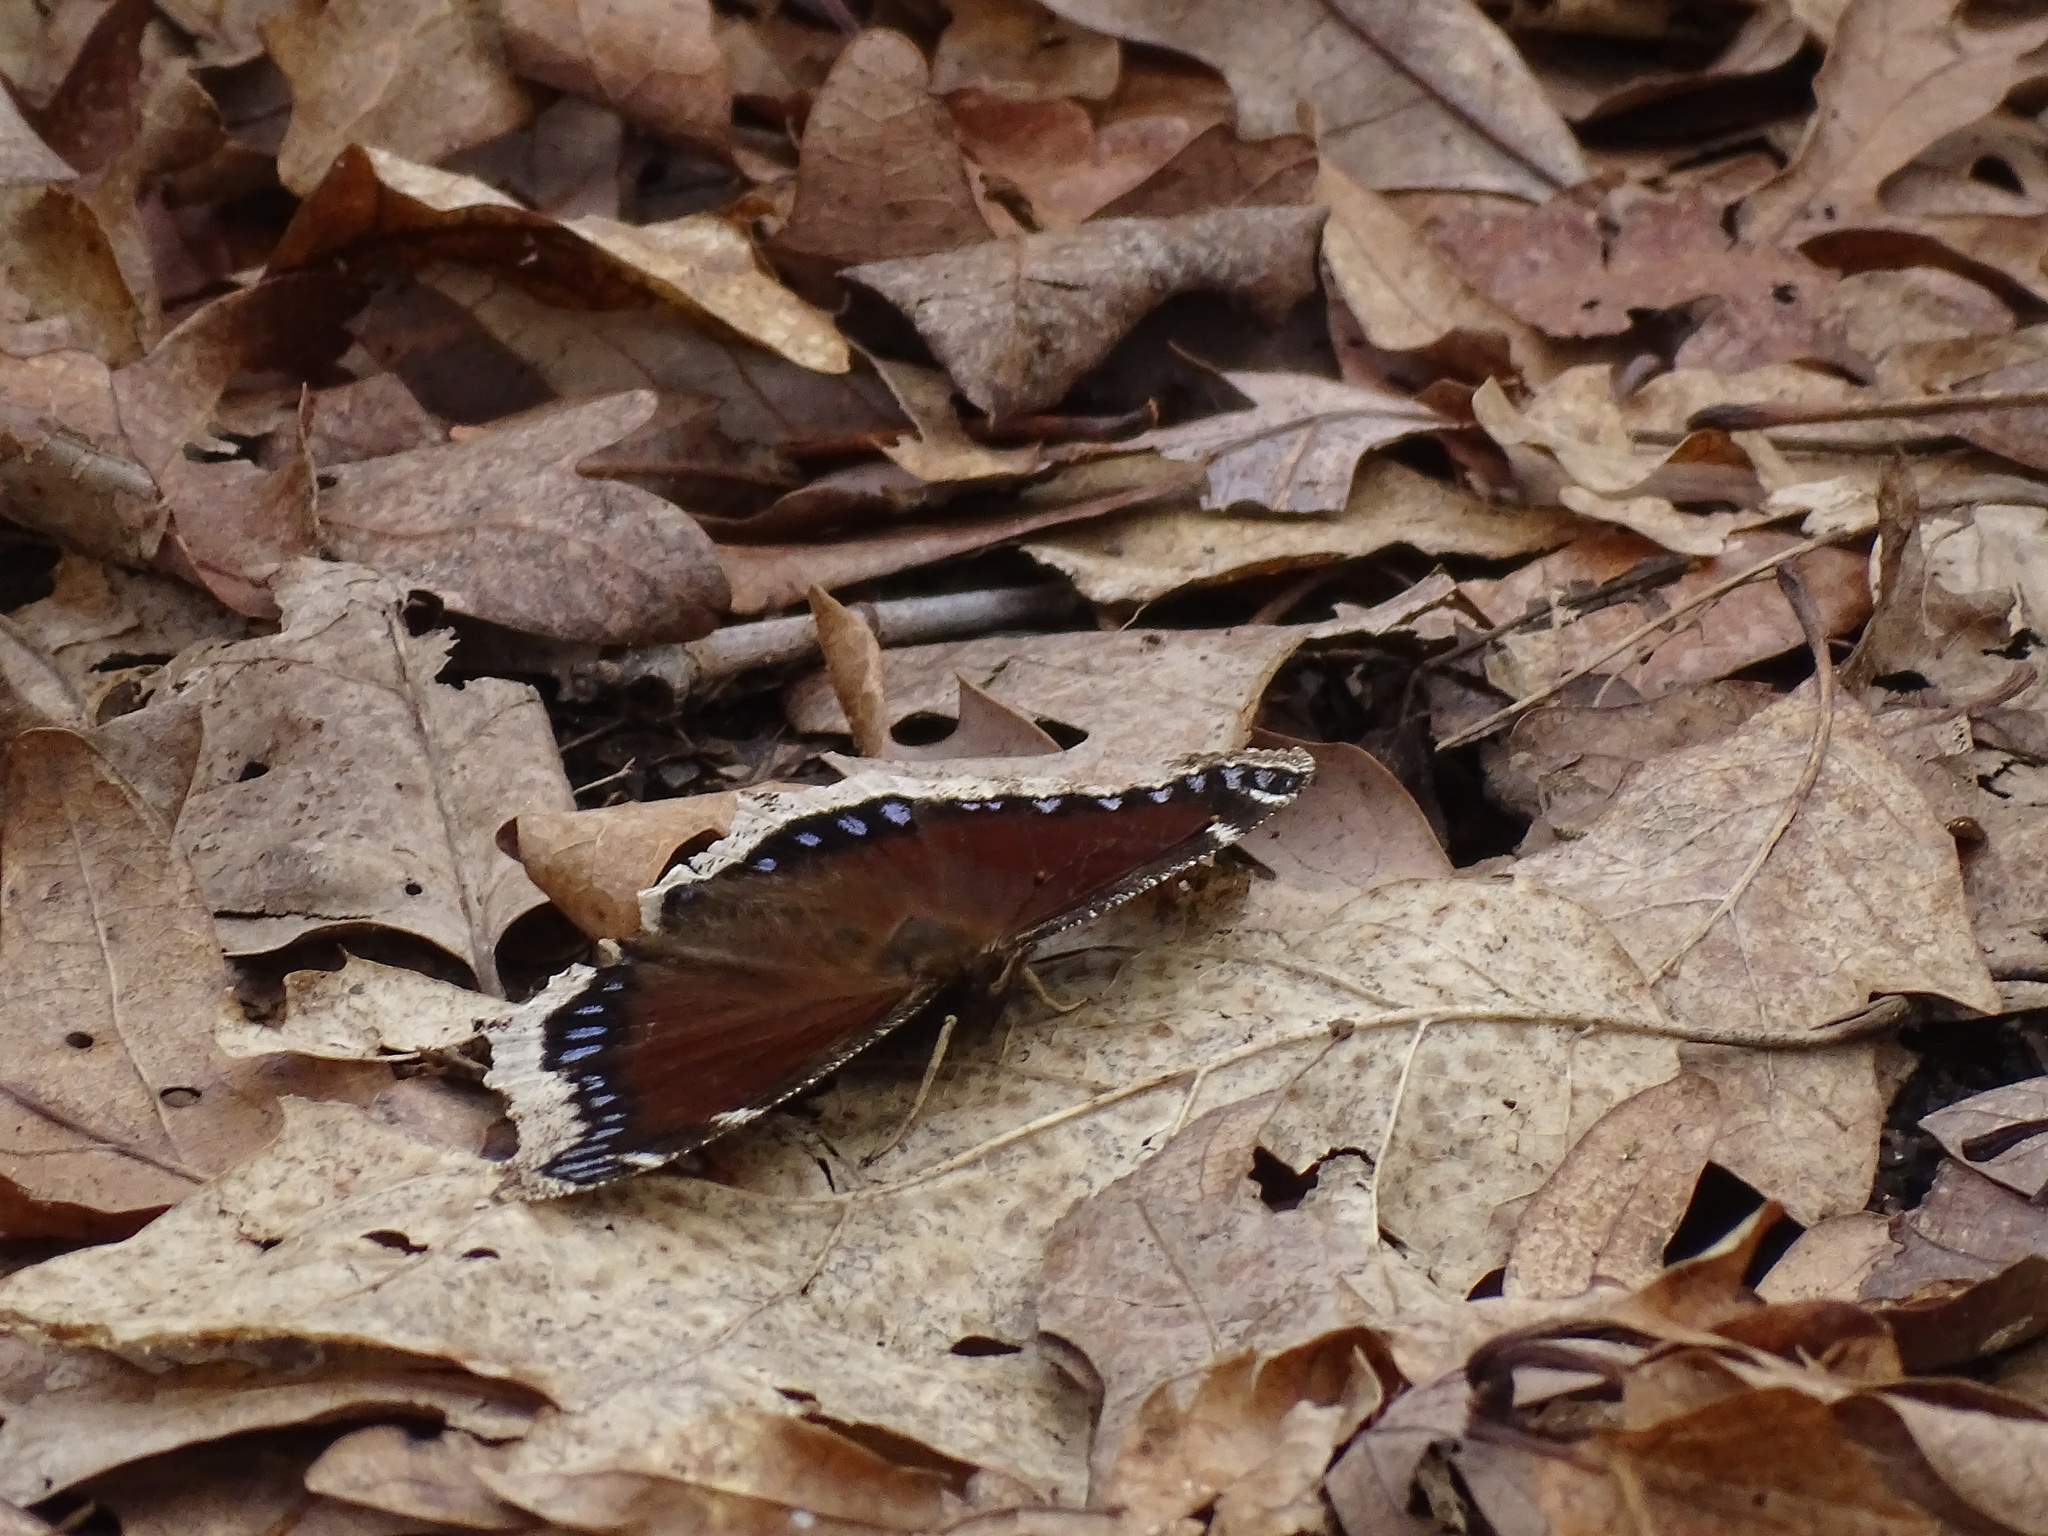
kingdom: Animalia
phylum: Arthropoda
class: Insecta
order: Lepidoptera
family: Nymphalidae
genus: Nymphalis
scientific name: Nymphalis antiopa
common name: Camberwell beauty
